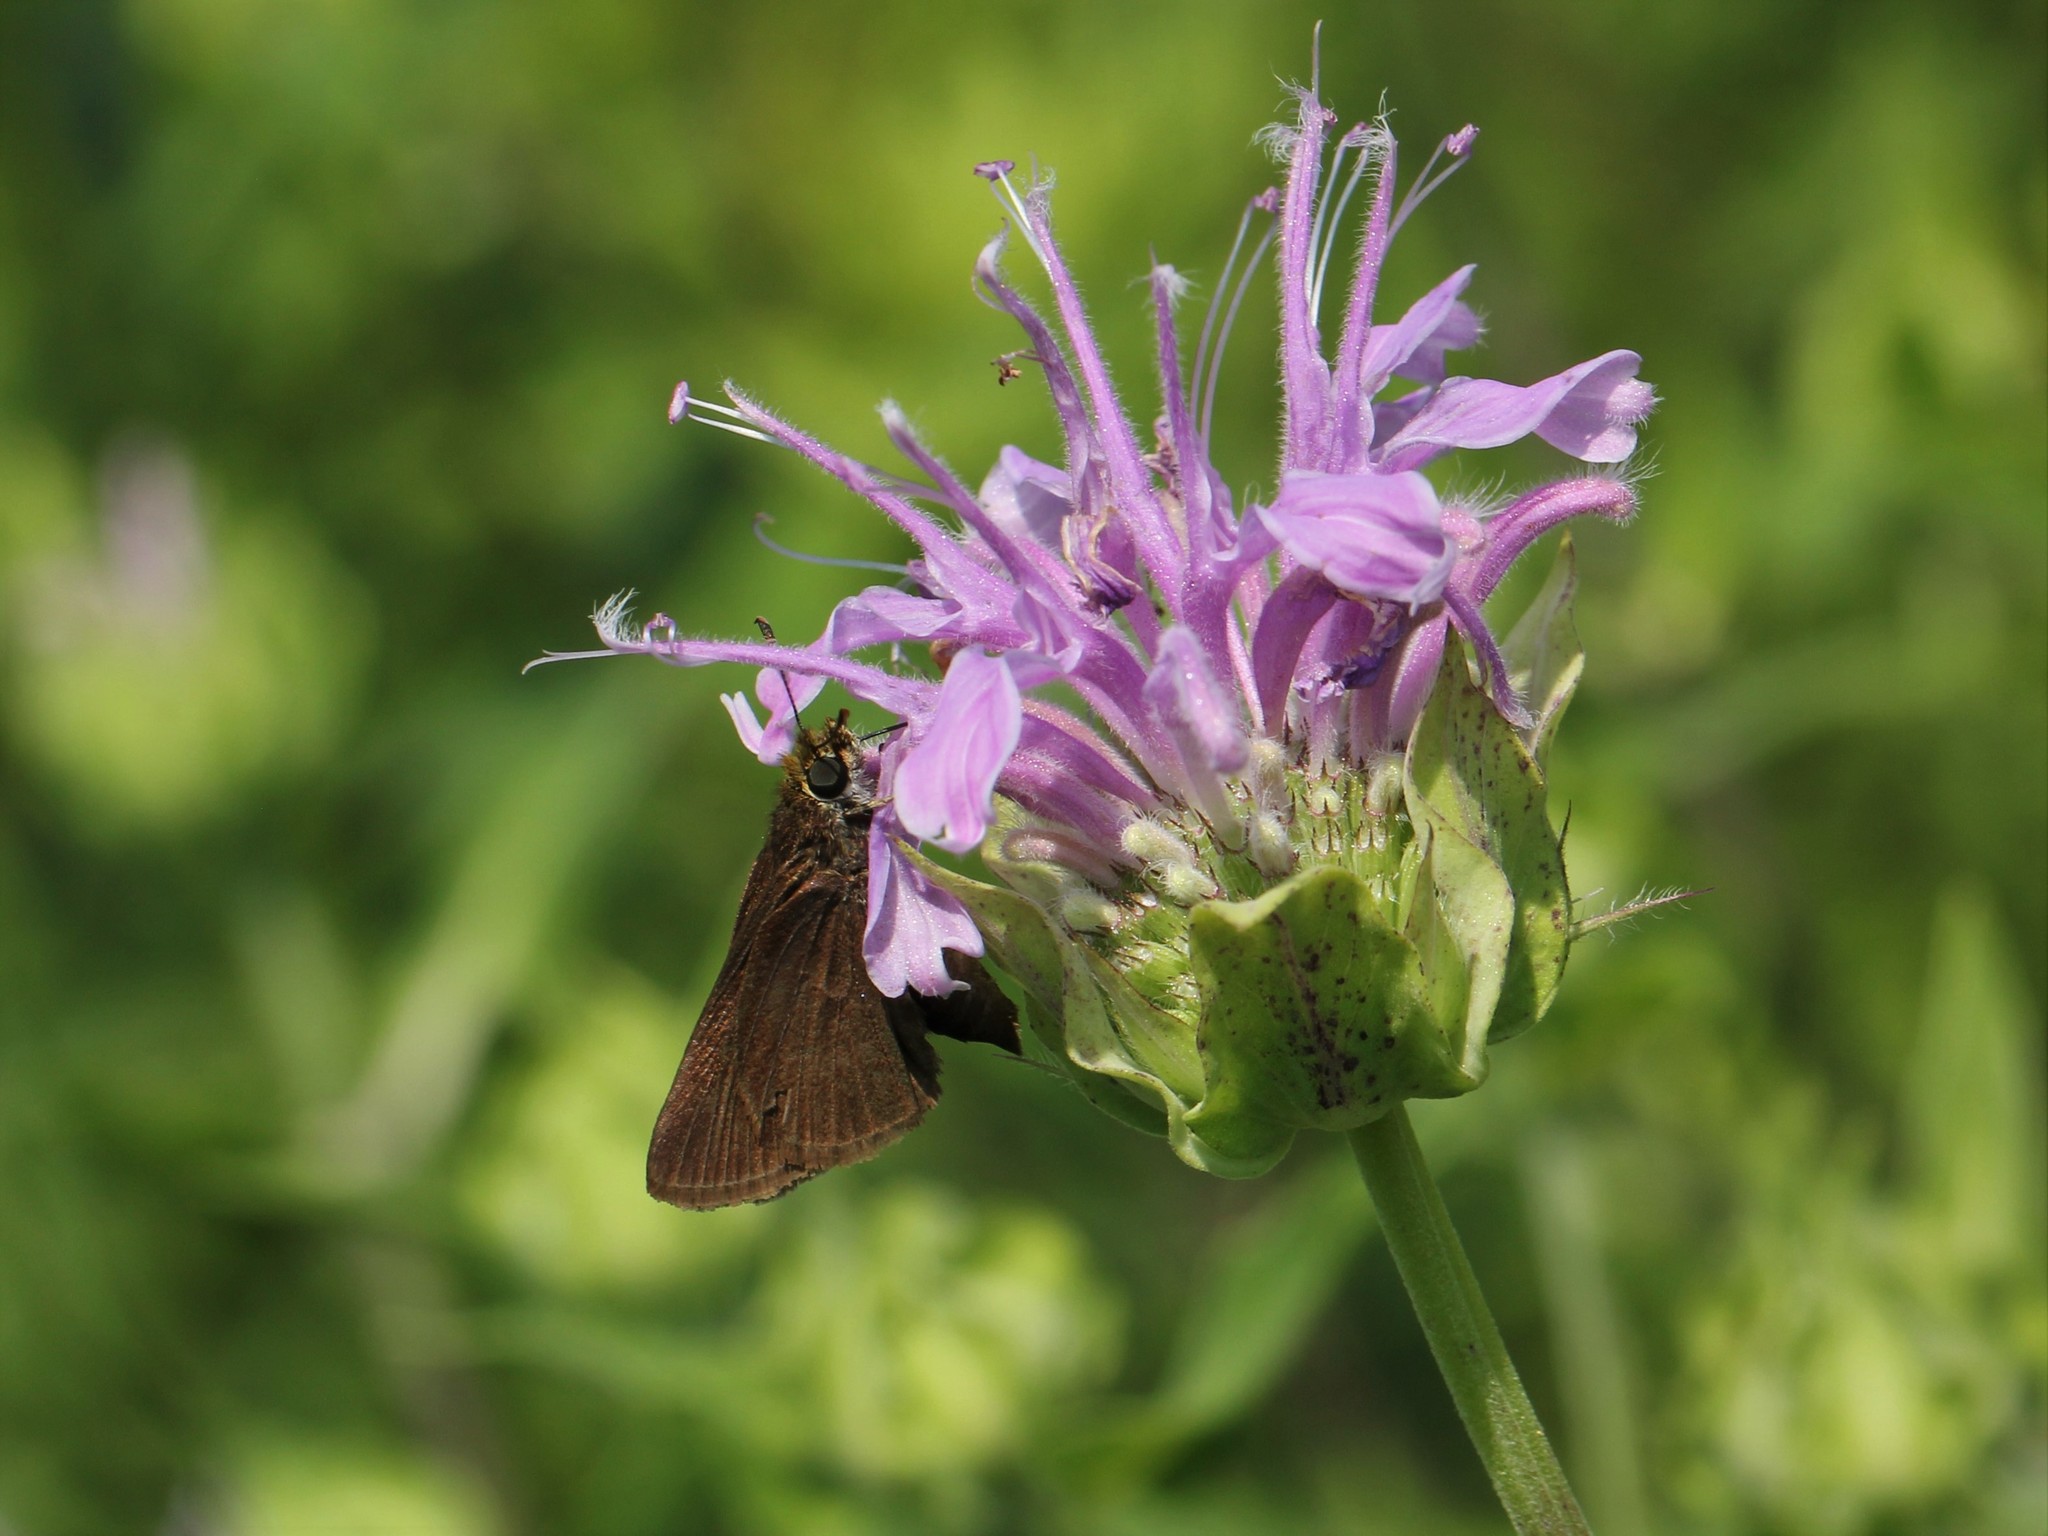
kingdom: Animalia
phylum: Arthropoda
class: Insecta
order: Lepidoptera
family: Hesperiidae
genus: Euphyes
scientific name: Euphyes vestris
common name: Dun skipper
